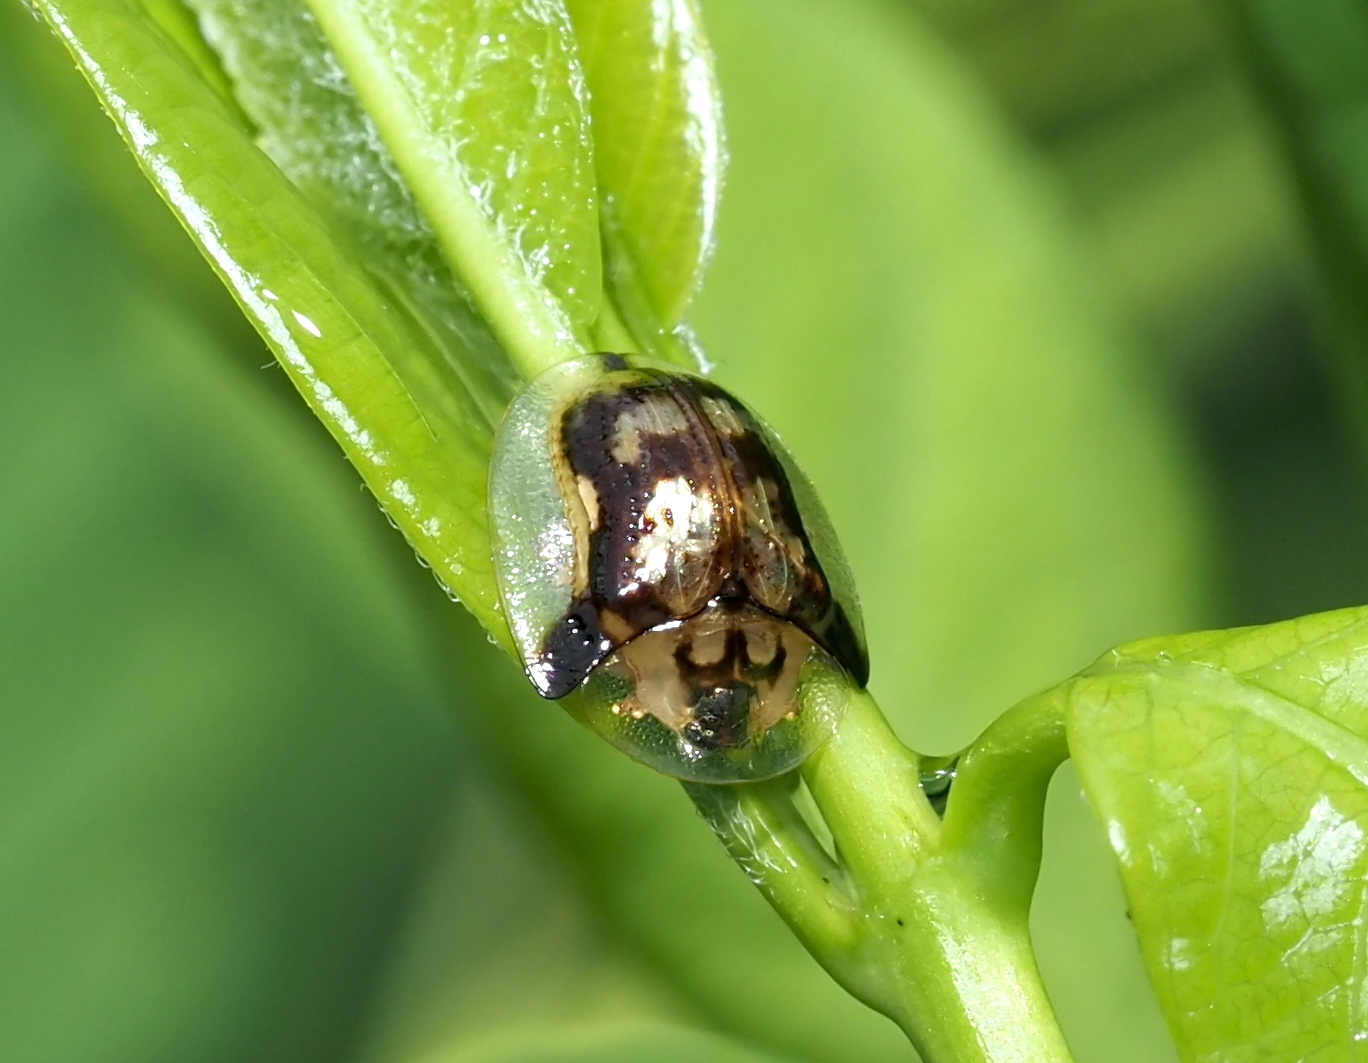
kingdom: Animalia
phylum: Arthropoda
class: Insecta
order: Coleoptera
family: Chrysomelidae
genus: Deloyala
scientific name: Deloyala guttata
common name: Mottled tortoise beetle
